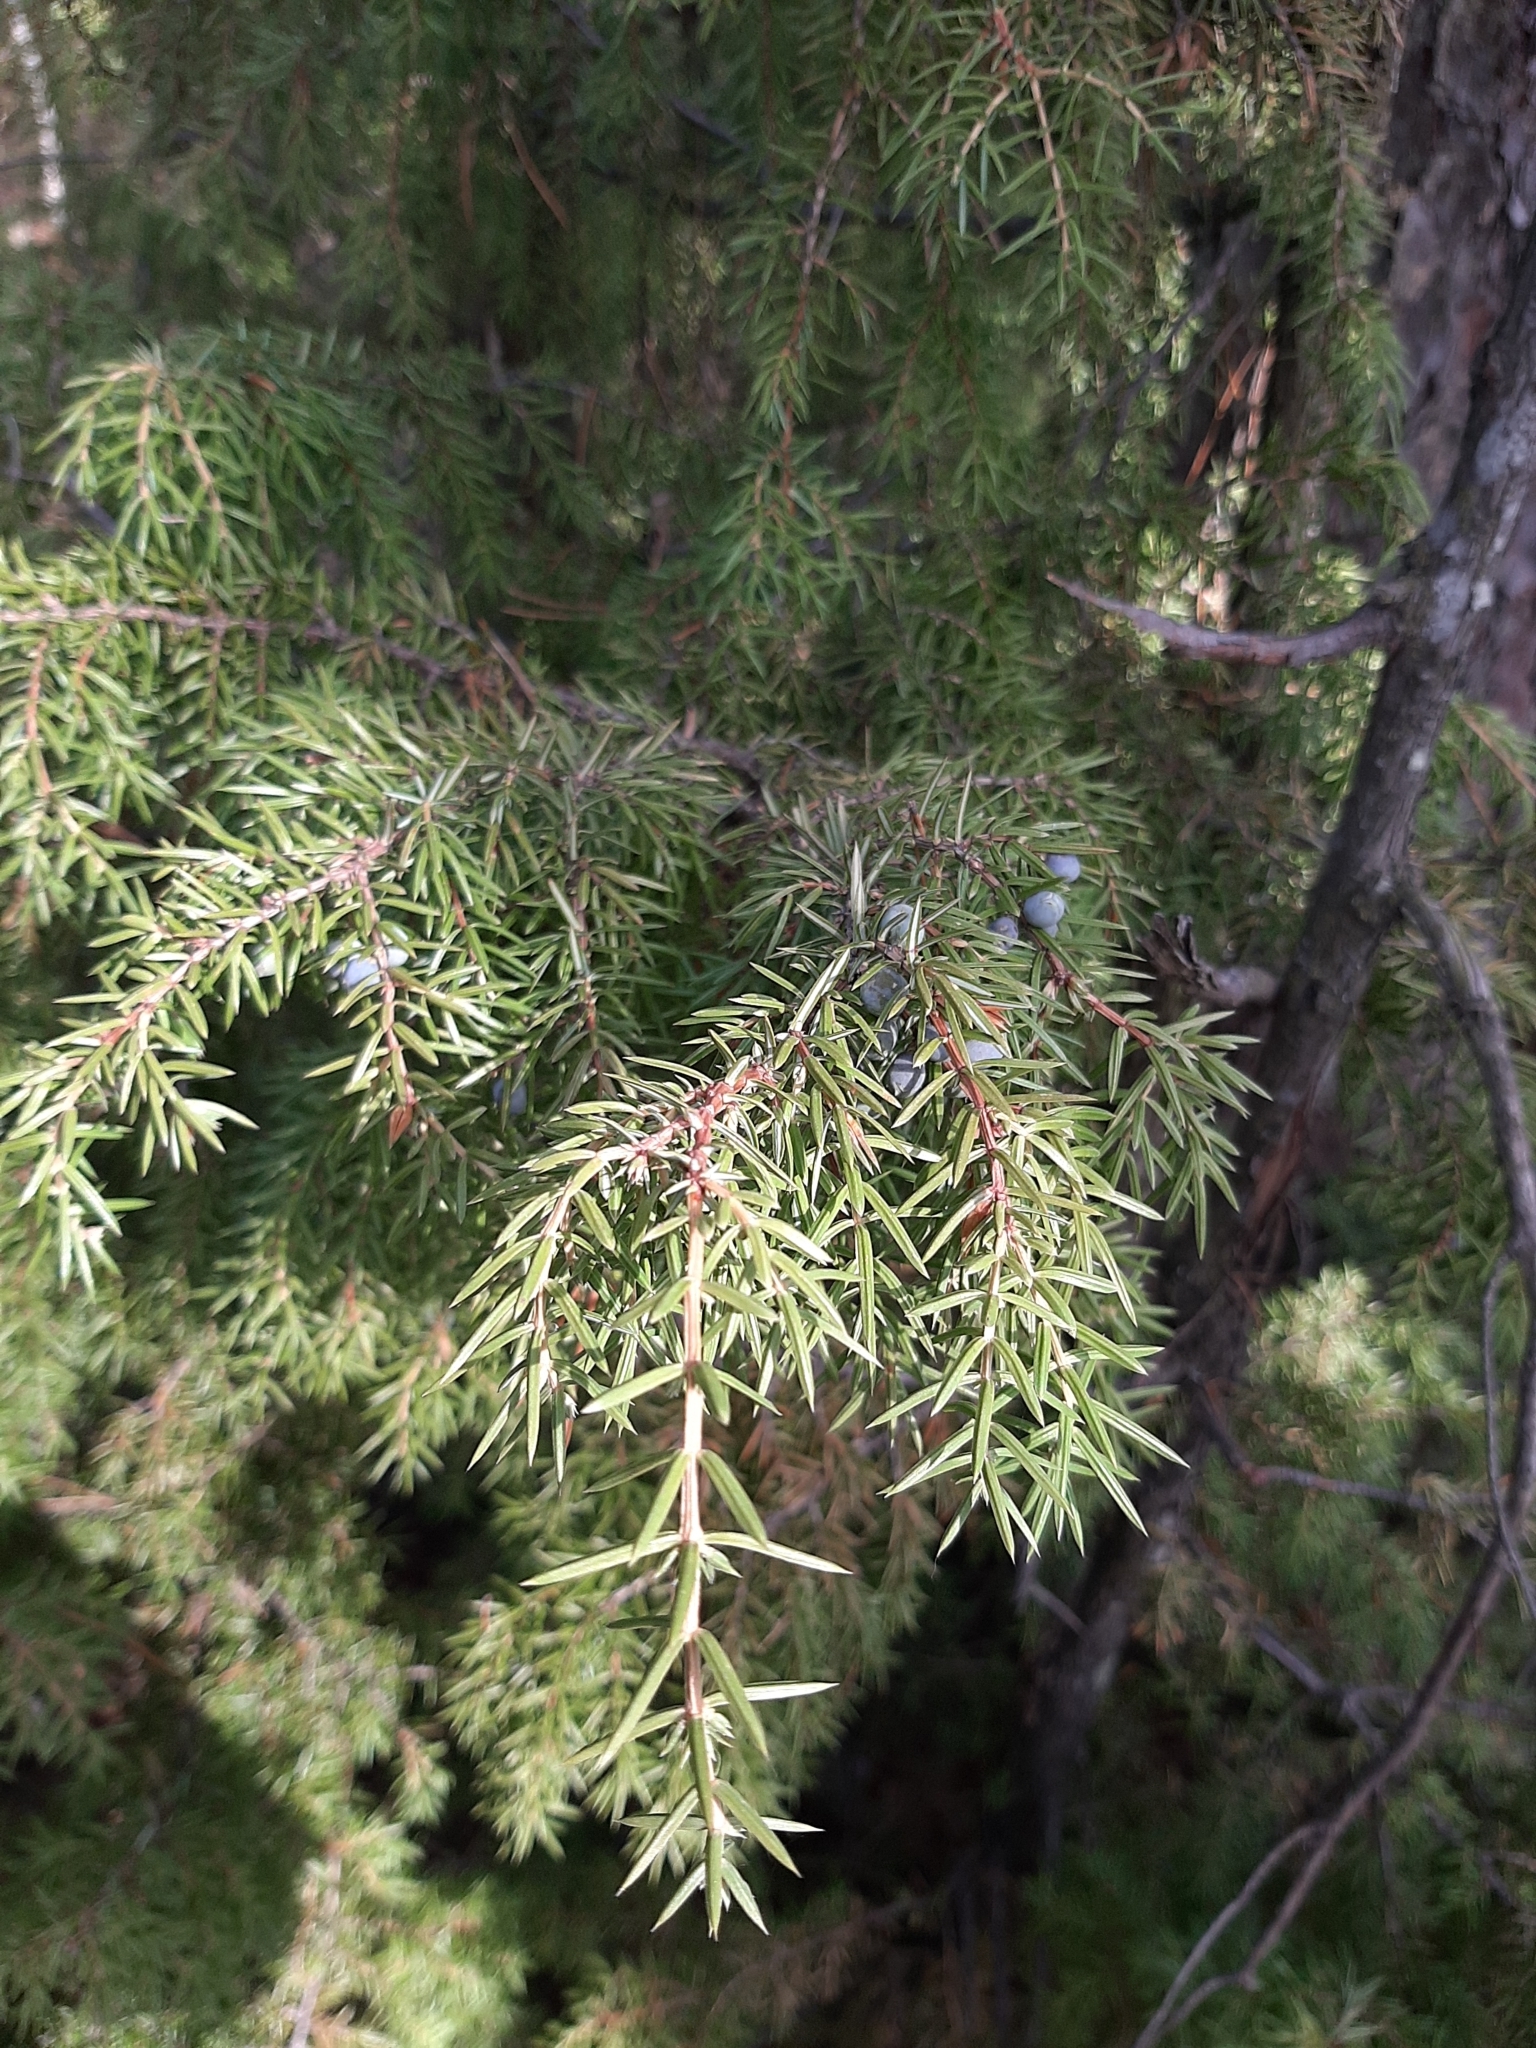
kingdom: Plantae
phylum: Tracheophyta
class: Pinopsida
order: Pinales
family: Cupressaceae
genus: Juniperus
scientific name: Juniperus communis
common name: Common juniper
